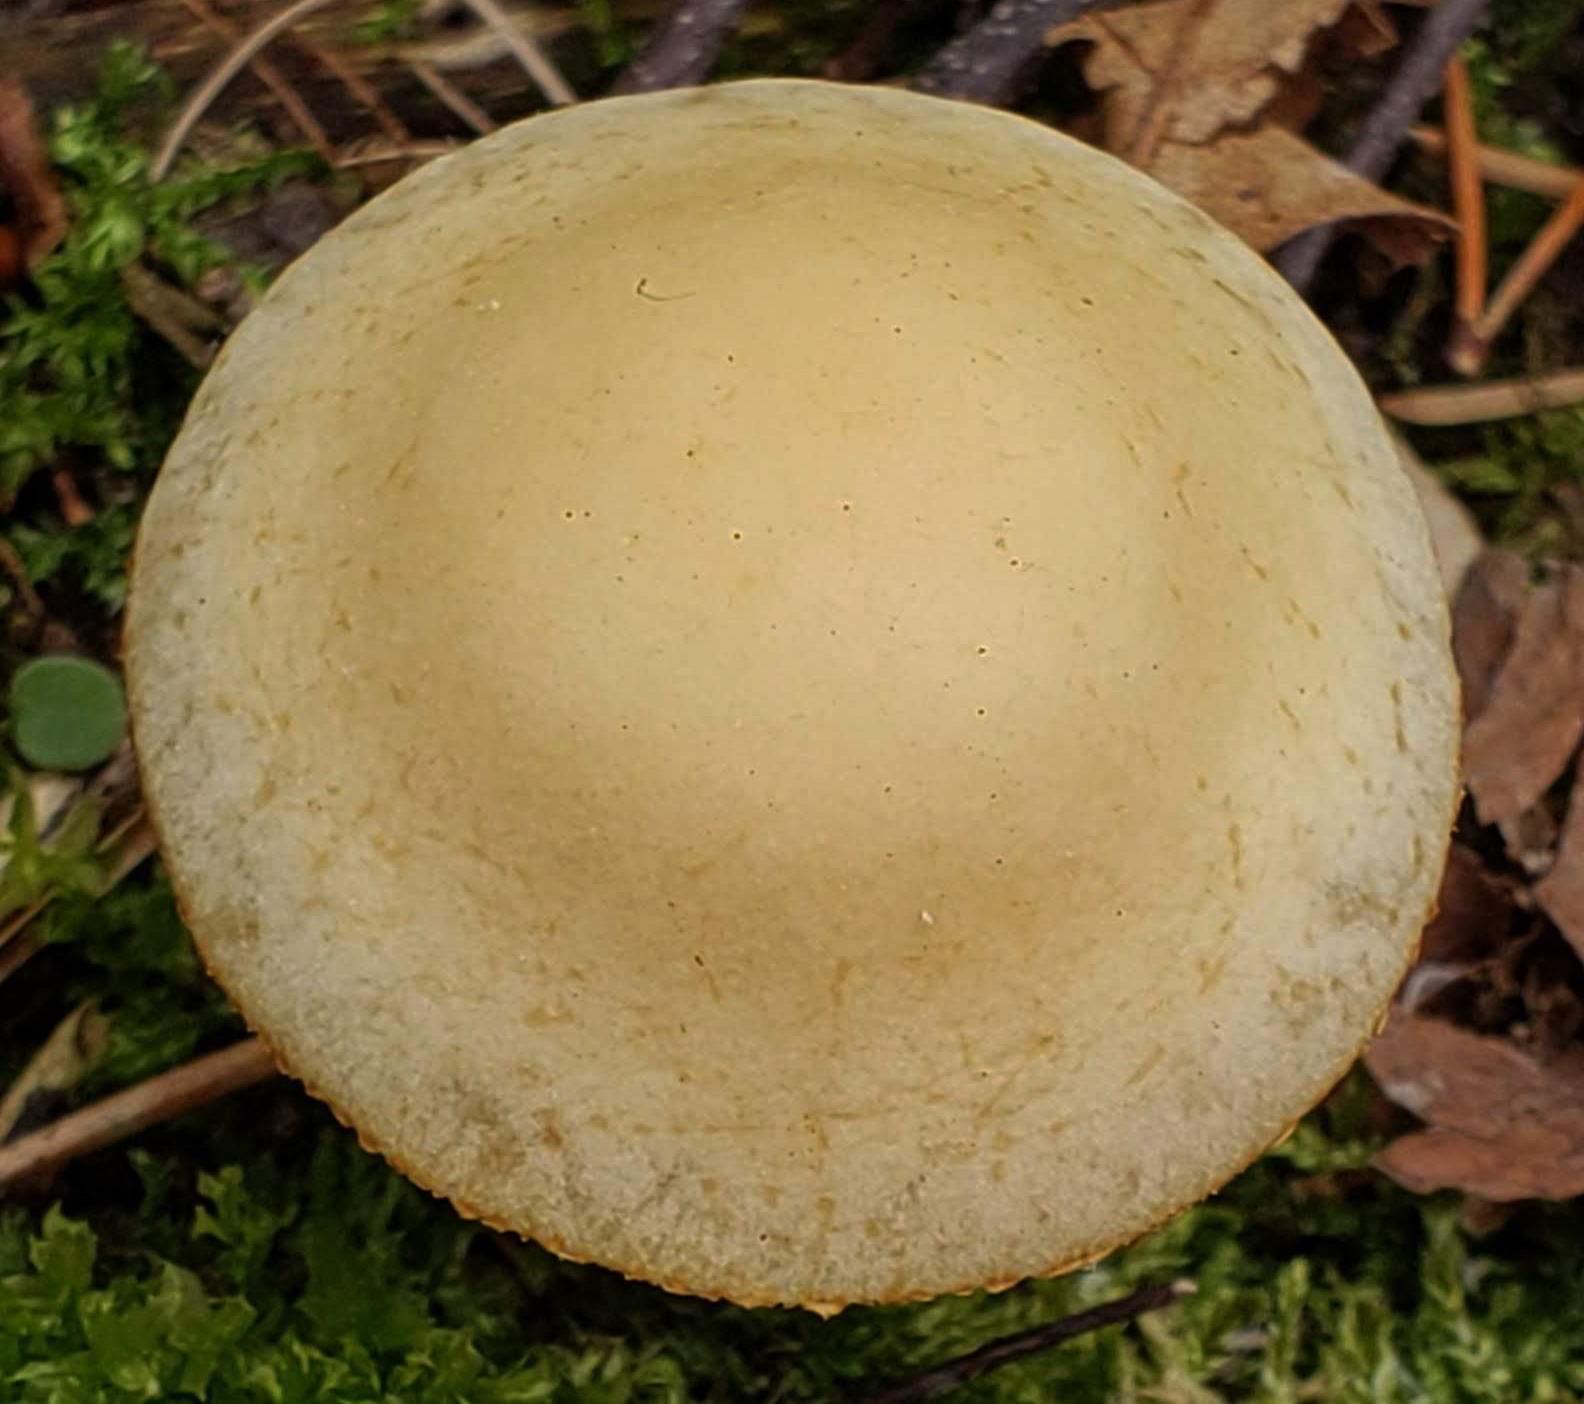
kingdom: Fungi
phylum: Basidiomycota
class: Agaricomycetes
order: Agaricales
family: Strophariaceae
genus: Agrocybe
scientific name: Agrocybe praecox
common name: Spring fieldcap
